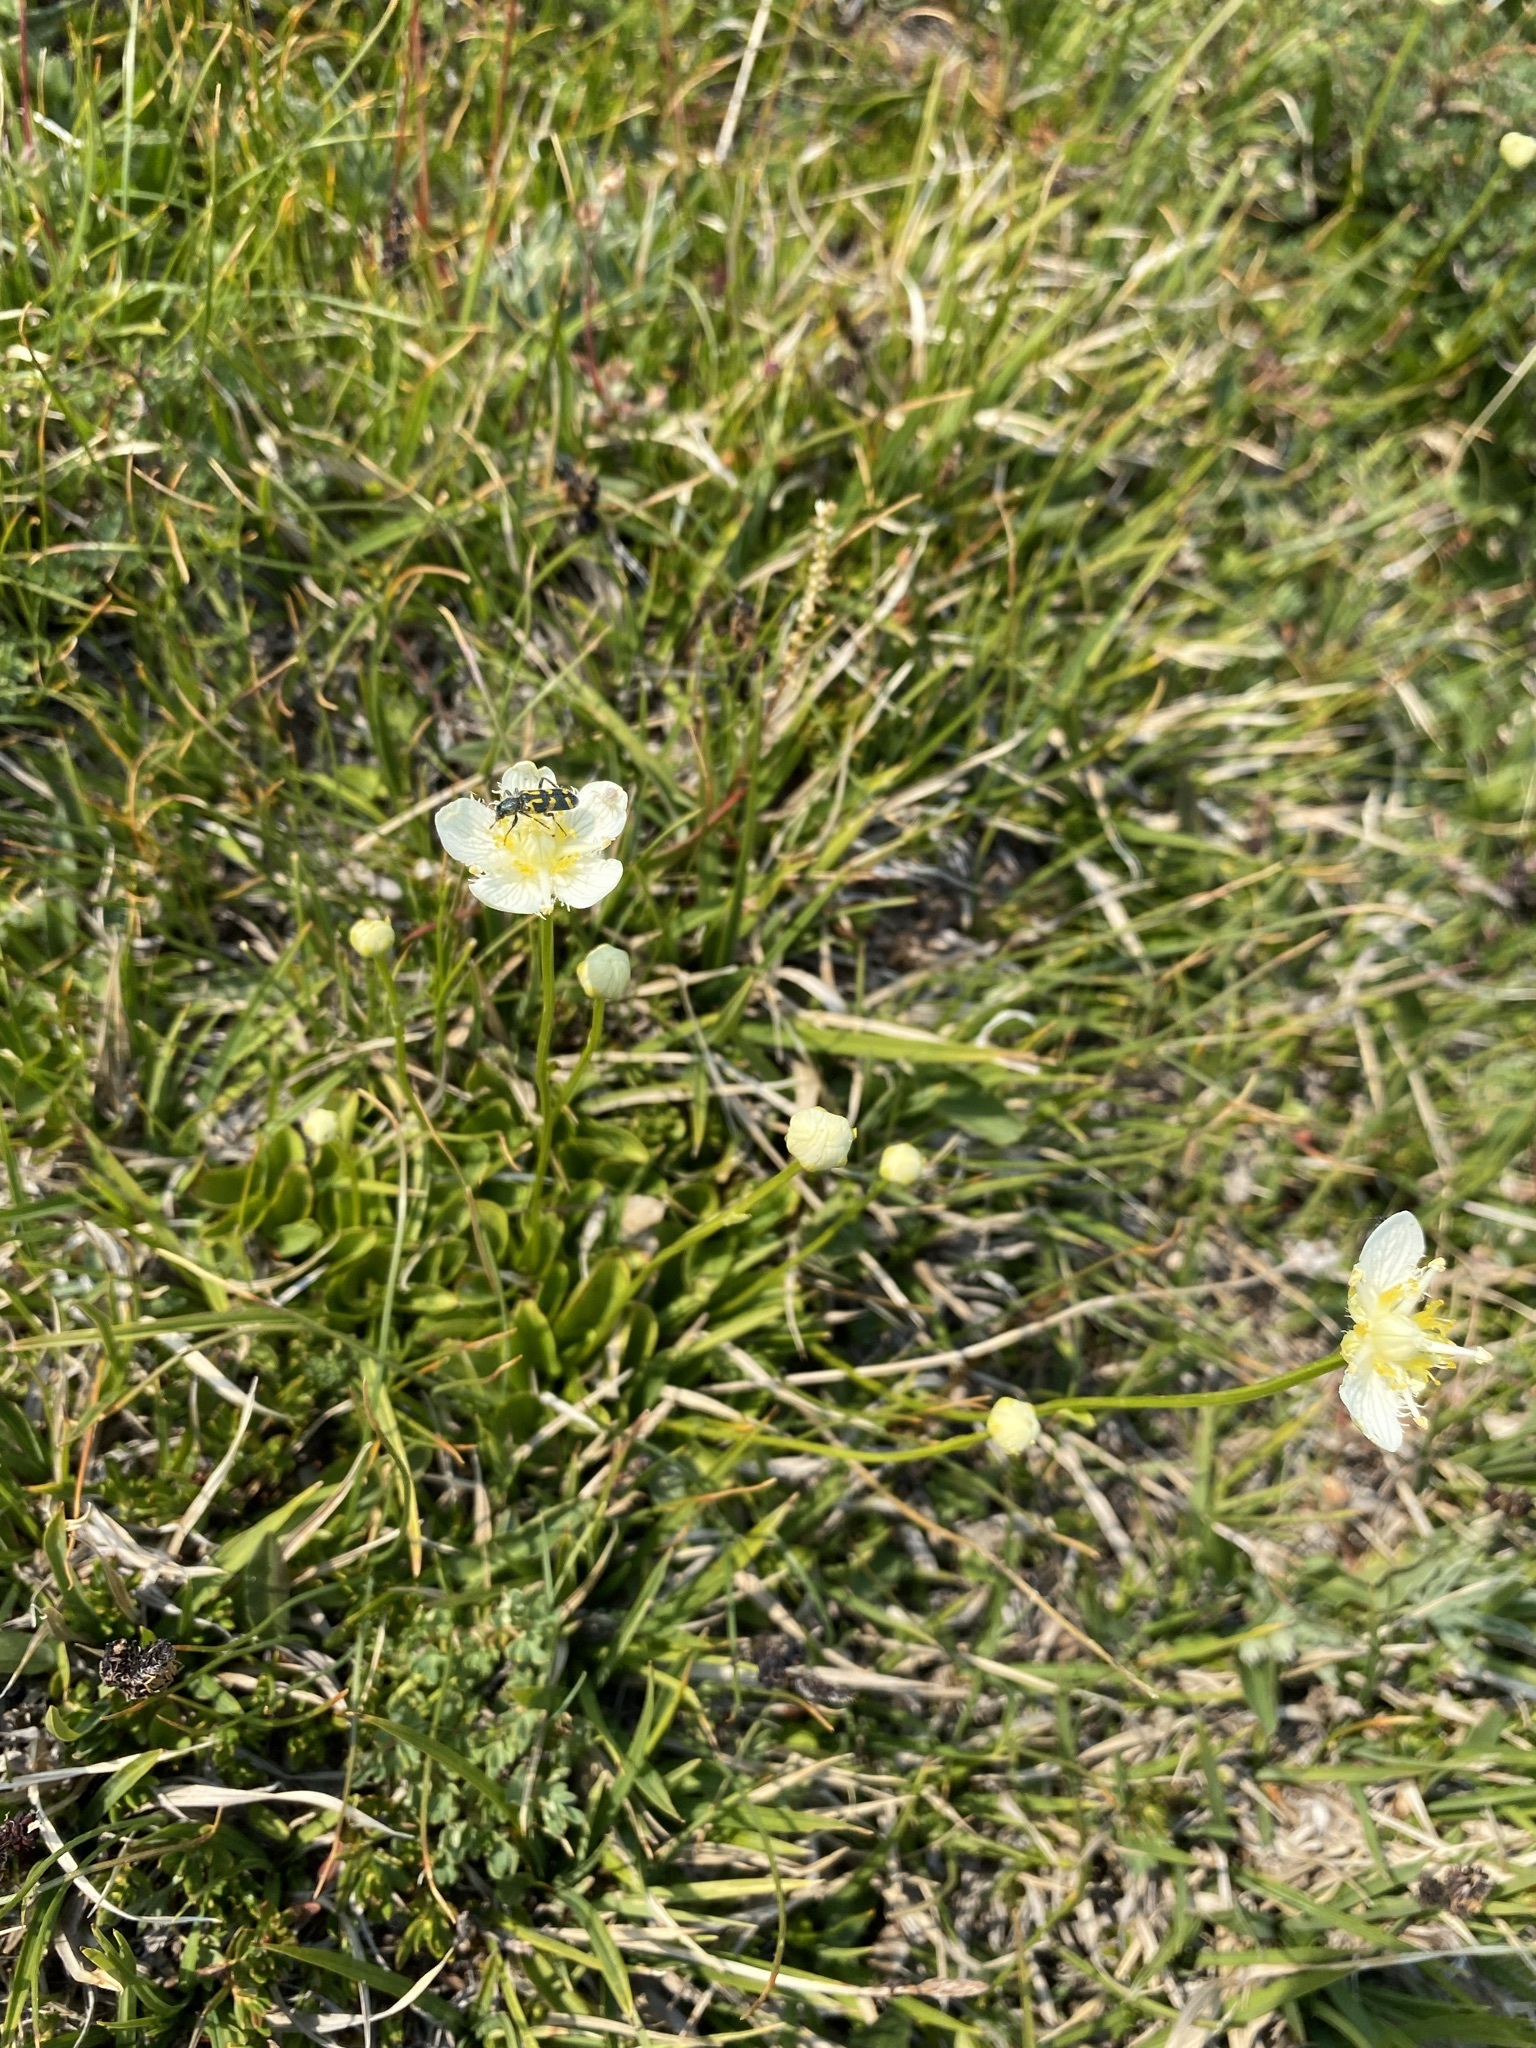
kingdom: Plantae
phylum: Tracheophyta
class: Magnoliopsida
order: Celastrales
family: Parnassiaceae
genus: Parnassia
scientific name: Parnassia fimbriata
